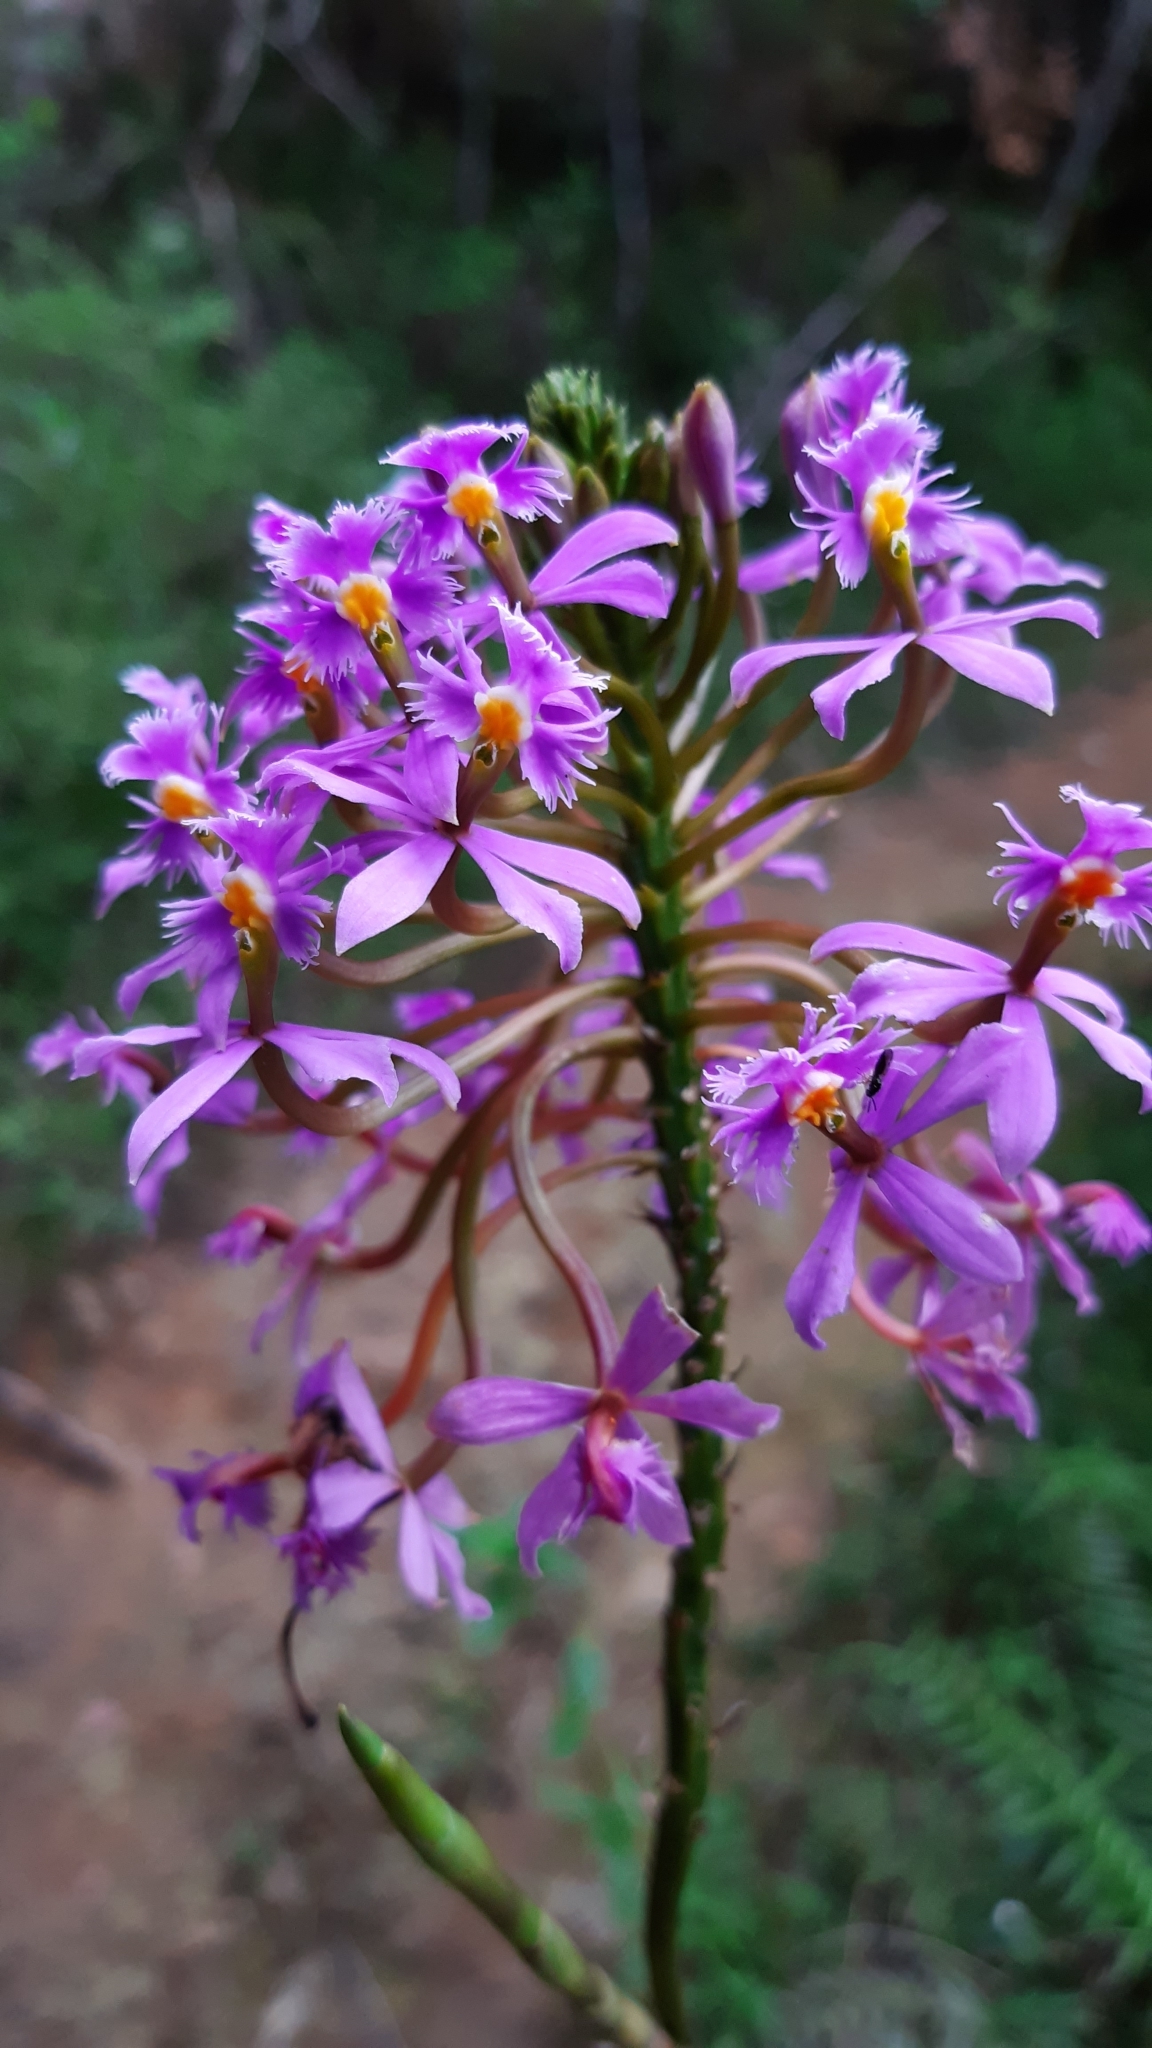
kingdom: Plantae
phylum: Tracheophyta
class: Liliopsida
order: Asparagales
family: Orchidaceae
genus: Epidendrum
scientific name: Epidendrum
